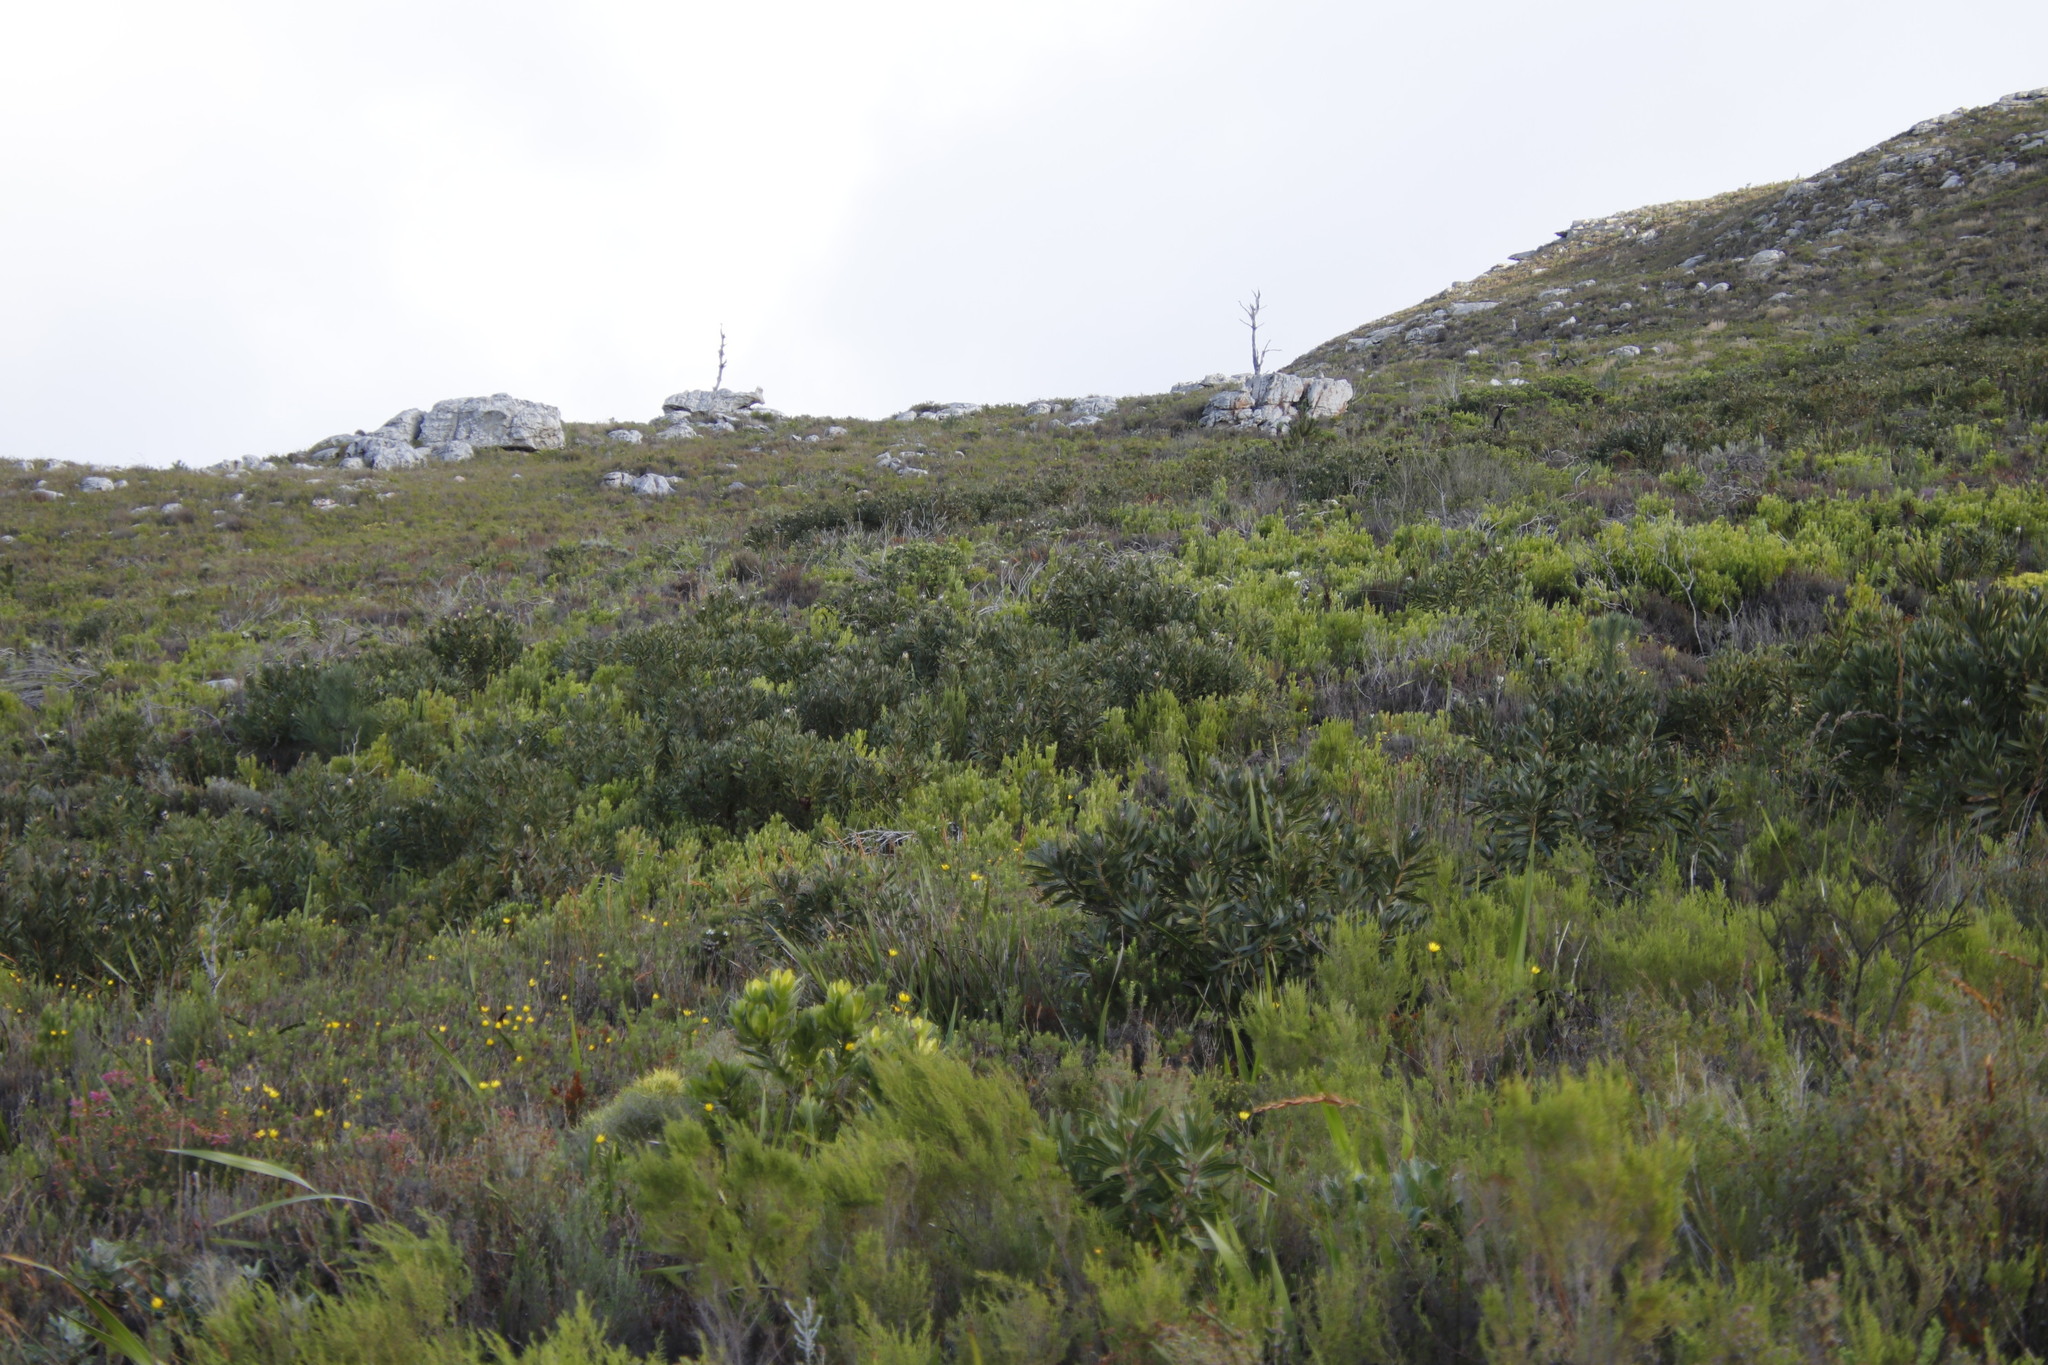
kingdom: Plantae
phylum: Tracheophyta
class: Magnoliopsida
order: Proteales
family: Proteaceae
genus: Protea
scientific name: Protea lepidocarpodendron
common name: Black-bearded protea
